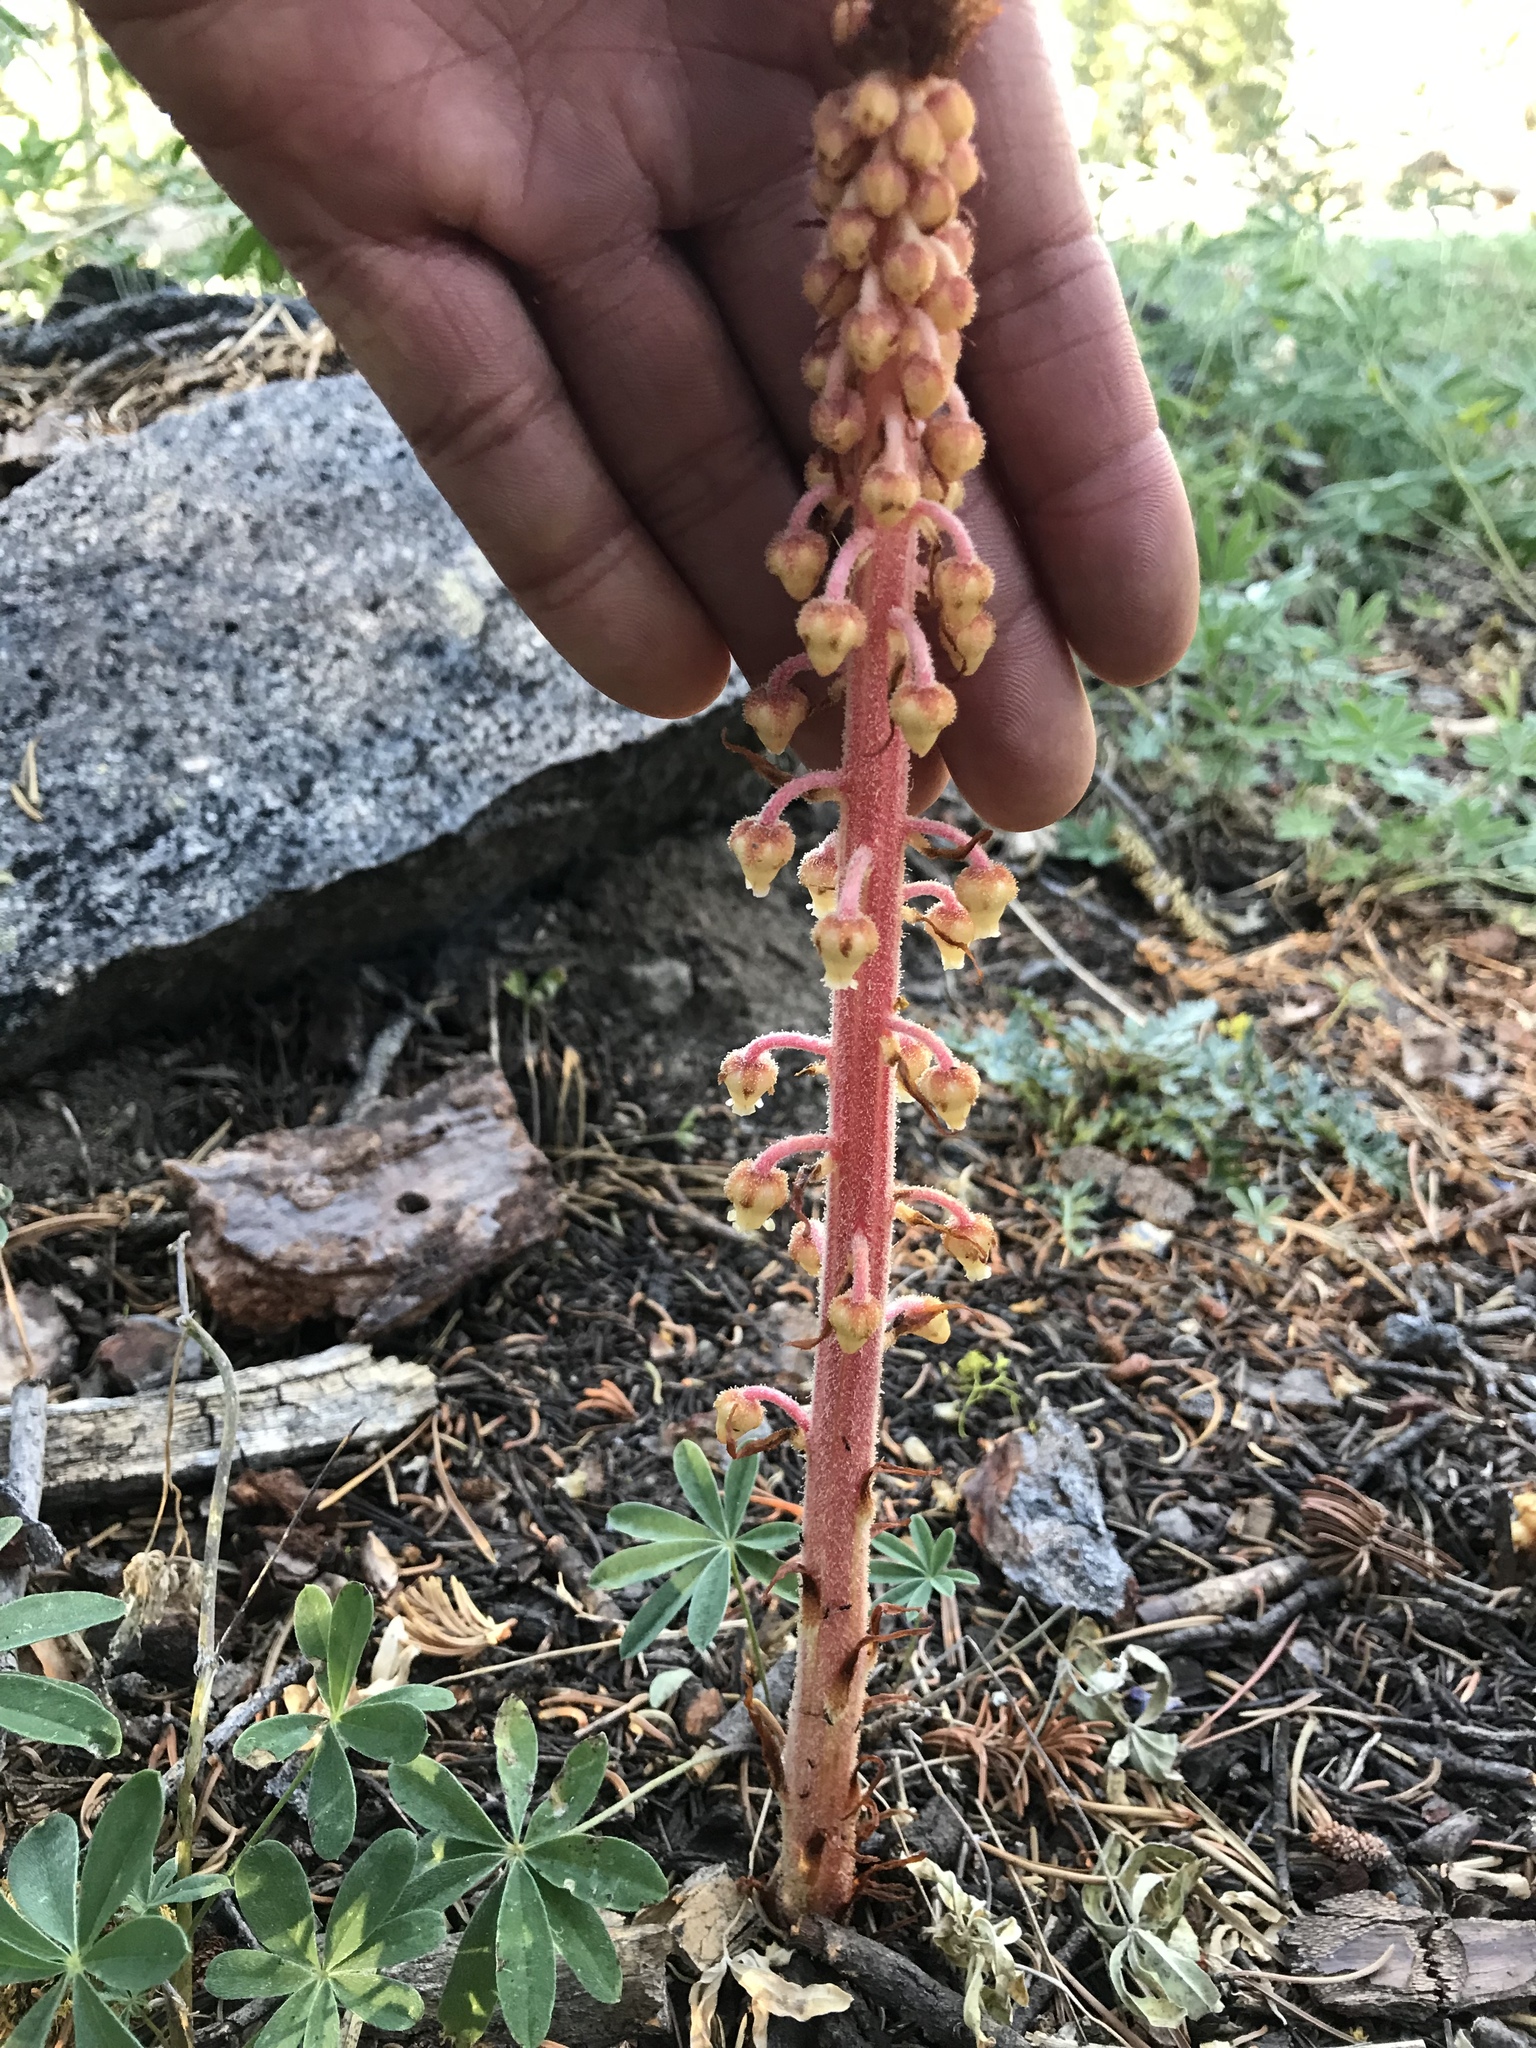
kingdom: Plantae
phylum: Tracheophyta
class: Magnoliopsida
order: Ericales
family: Ericaceae
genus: Pterospora
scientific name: Pterospora andromedea
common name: Giant bird's-nest
